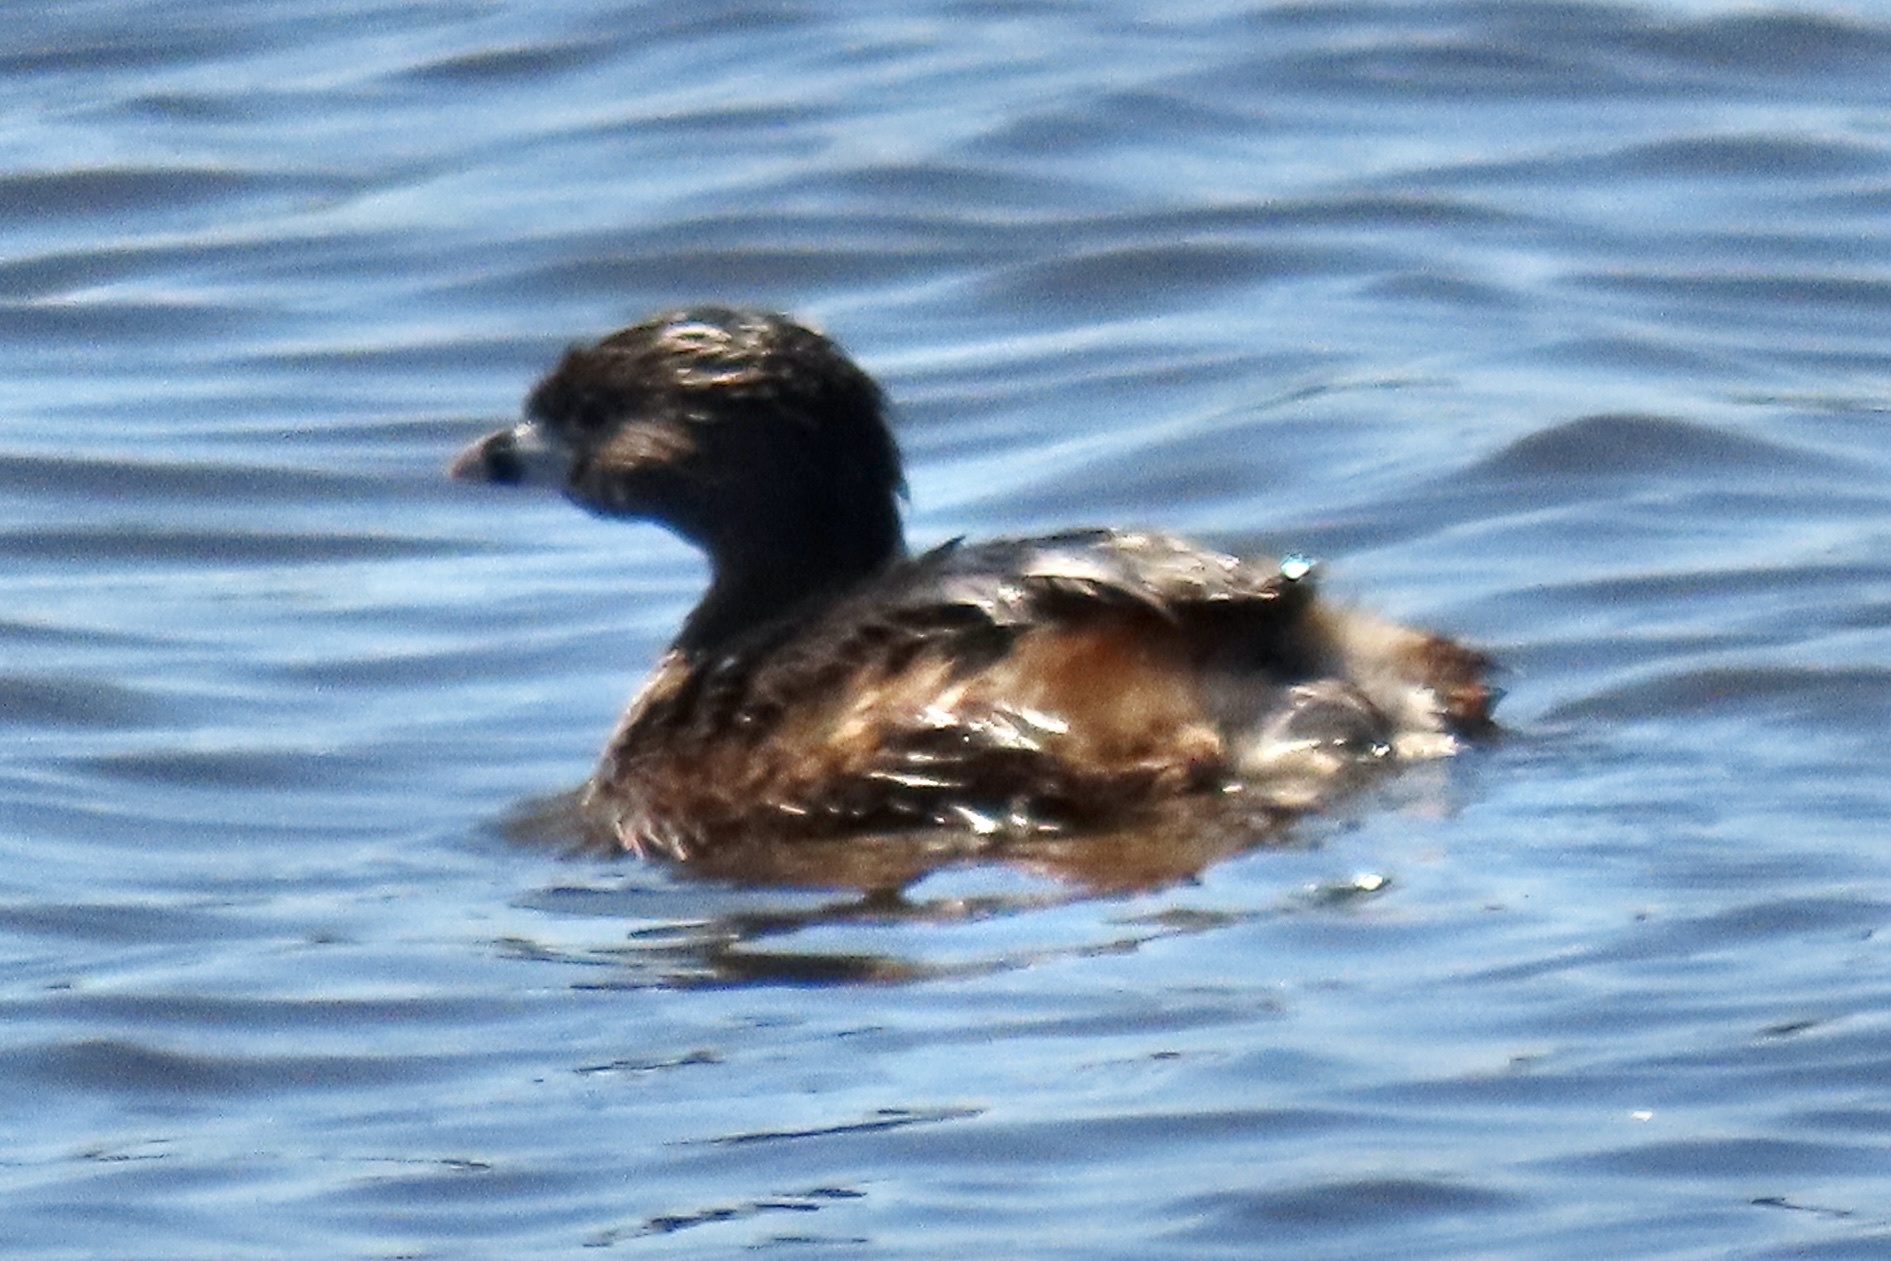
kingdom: Animalia
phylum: Chordata
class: Aves
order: Podicipediformes
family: Podicipedidae
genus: Podilymbus
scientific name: Podilymbus podiceps
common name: Pied-billed grebe
